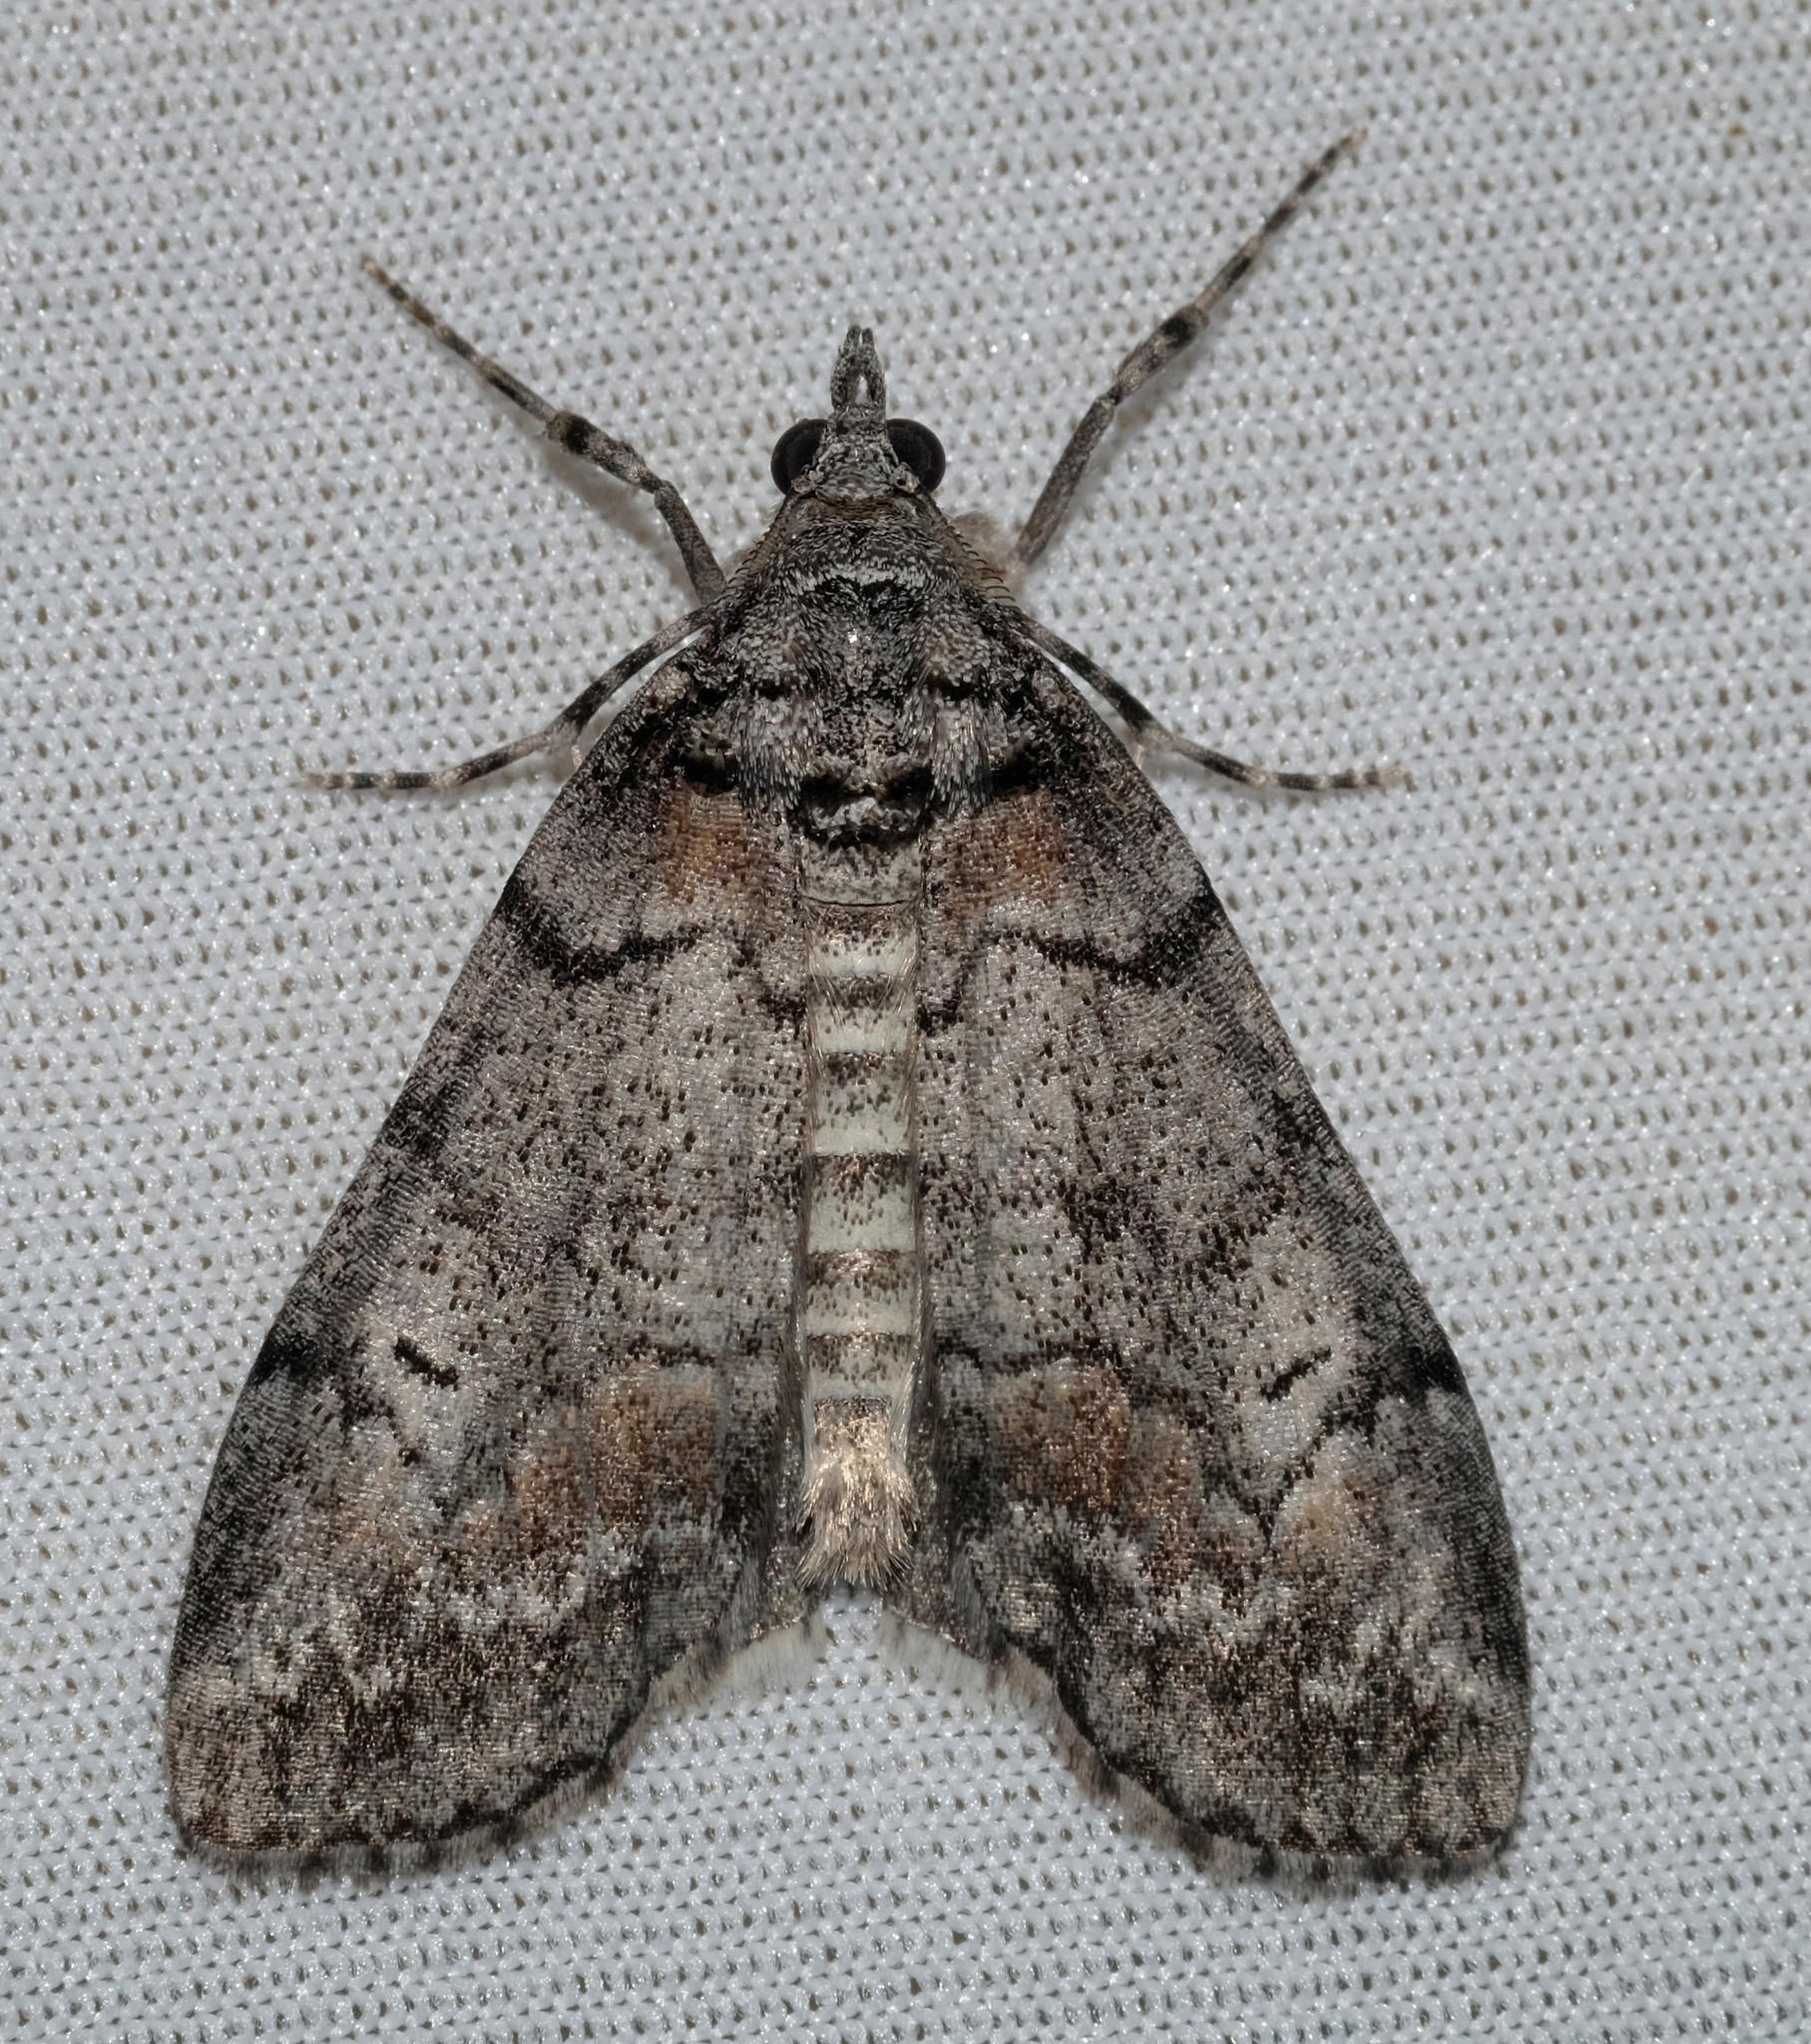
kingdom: Animalia
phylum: Arthropoda
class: Insecta
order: Lepidoptera
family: Geometridae
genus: Smyriodes
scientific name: Smyriodes trigramma
